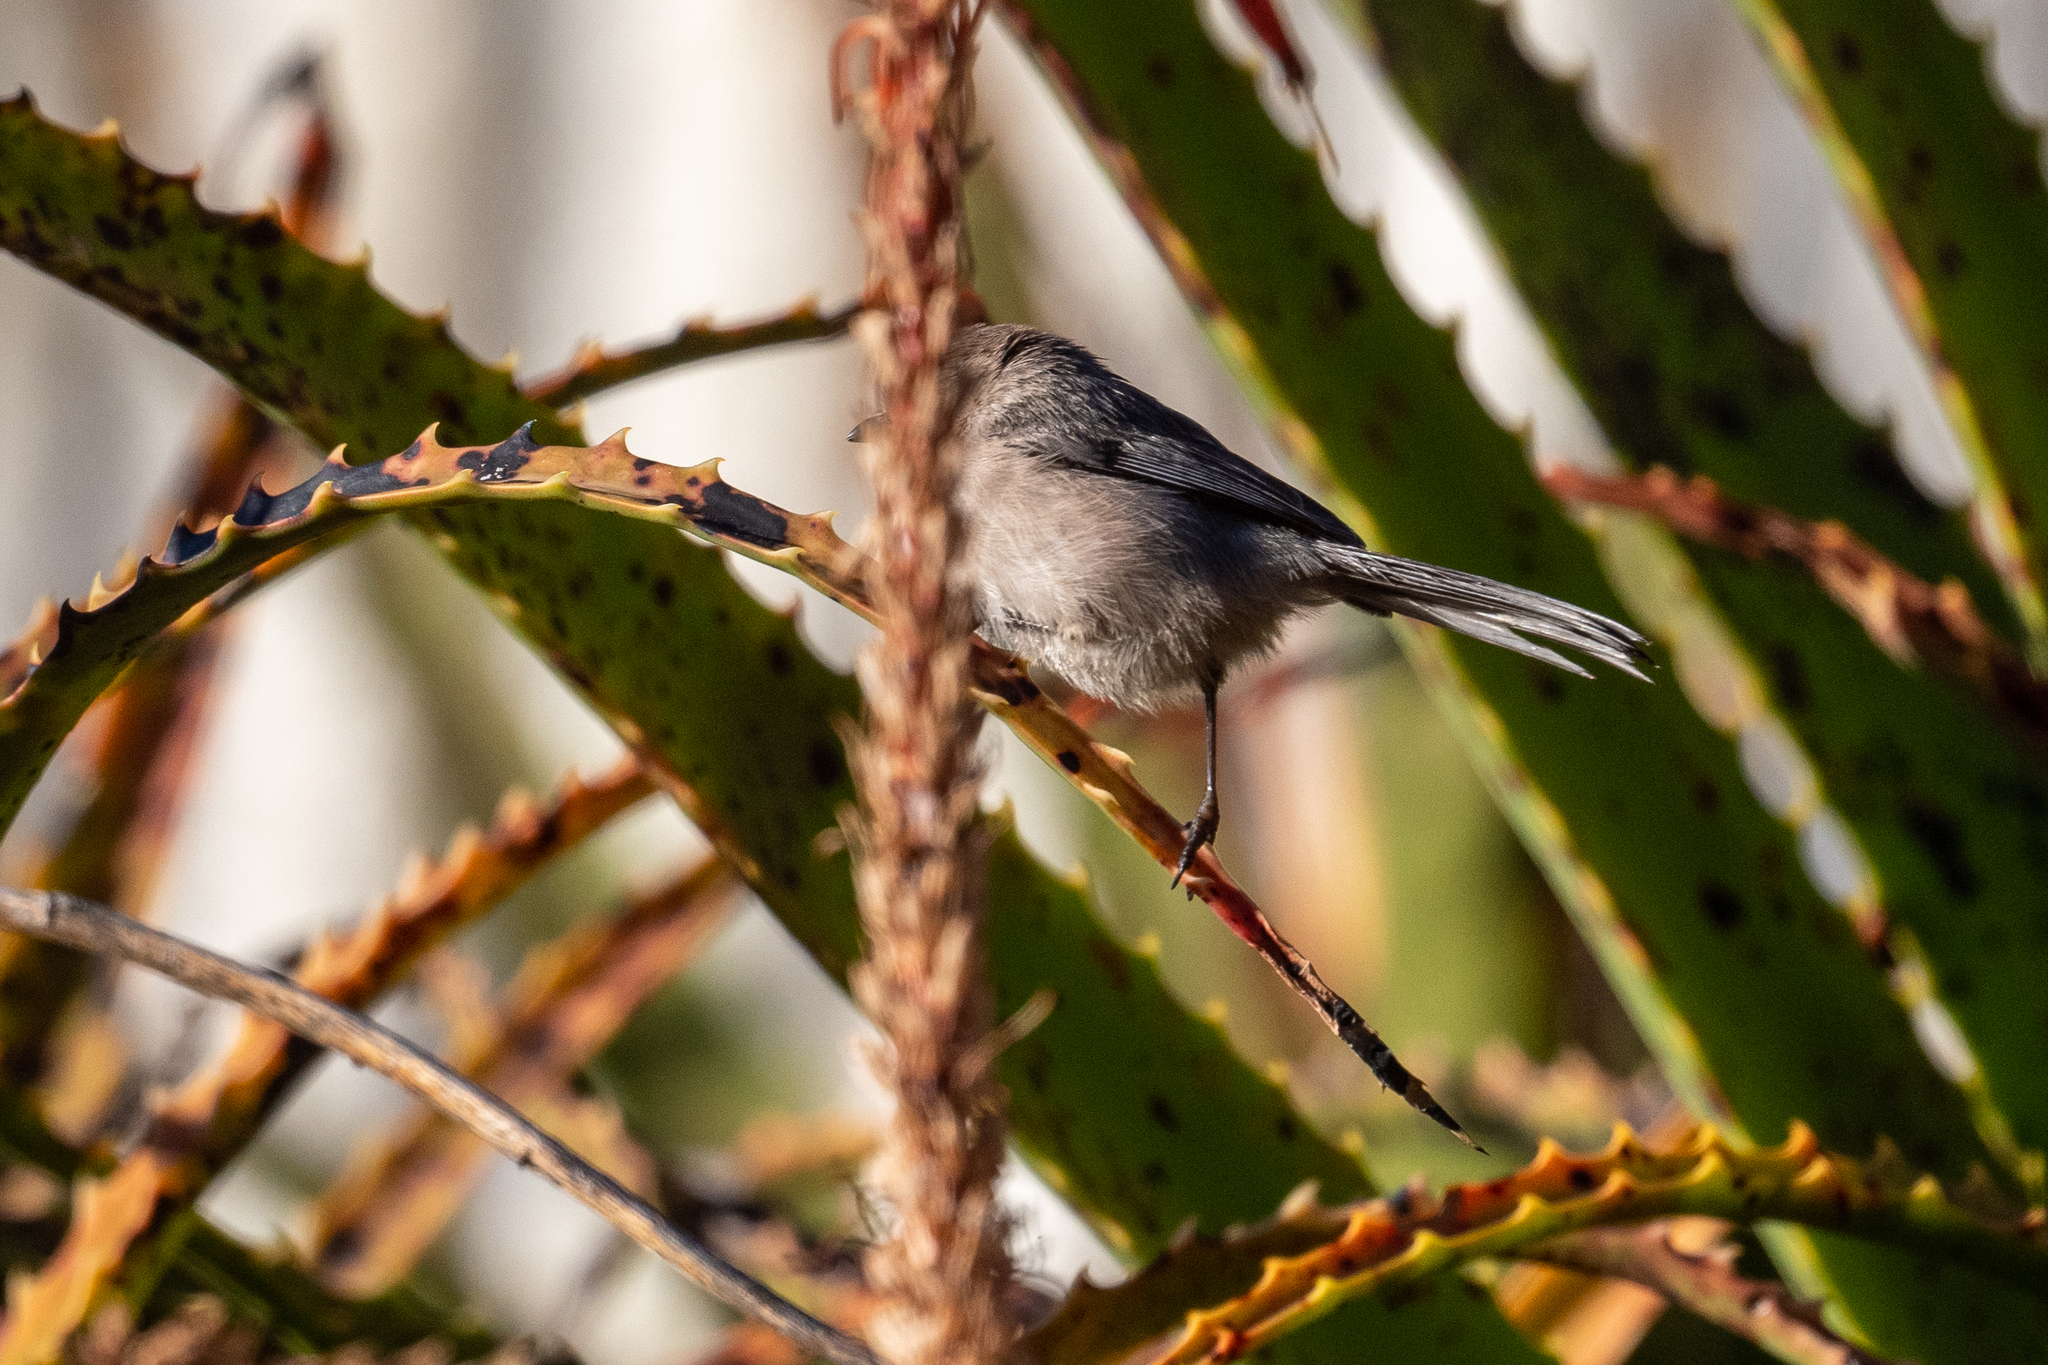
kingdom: Animalia
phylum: Chordata
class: Aves
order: Passeriformes
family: Aegithalidae
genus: Psaltriparus
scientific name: Psaltriparus minimus
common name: American bushtit
